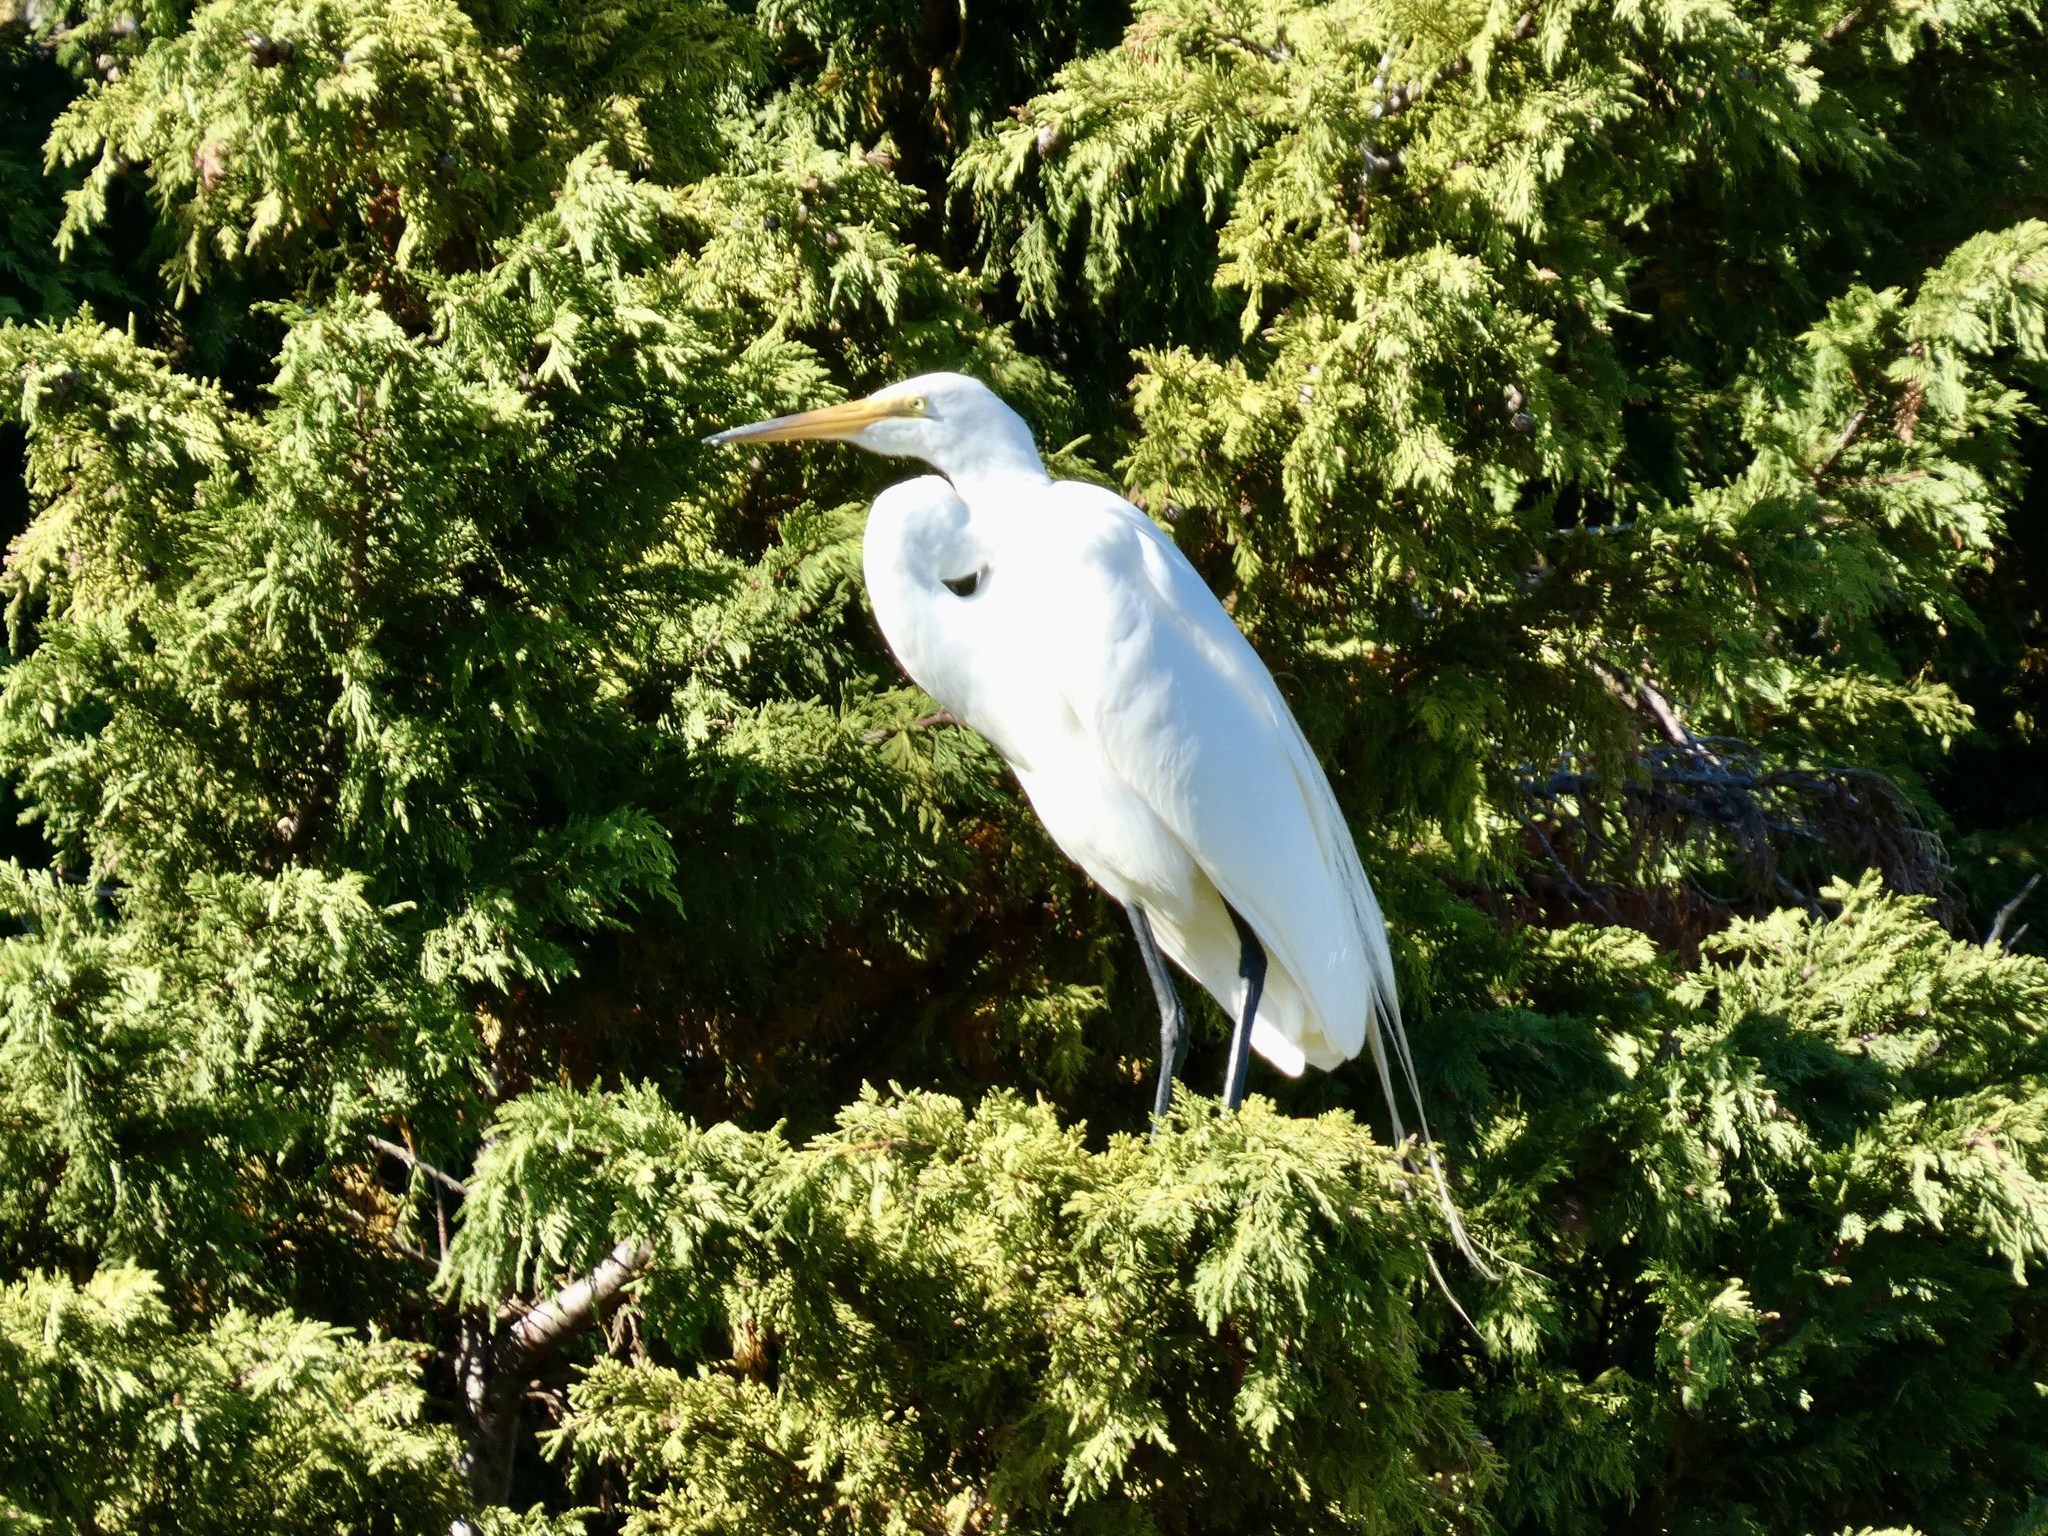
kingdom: Animalia
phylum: Chordata
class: Aves
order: Pelecaniformes
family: Ardeidae
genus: Ardea
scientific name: Ardea alba
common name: Great egret
